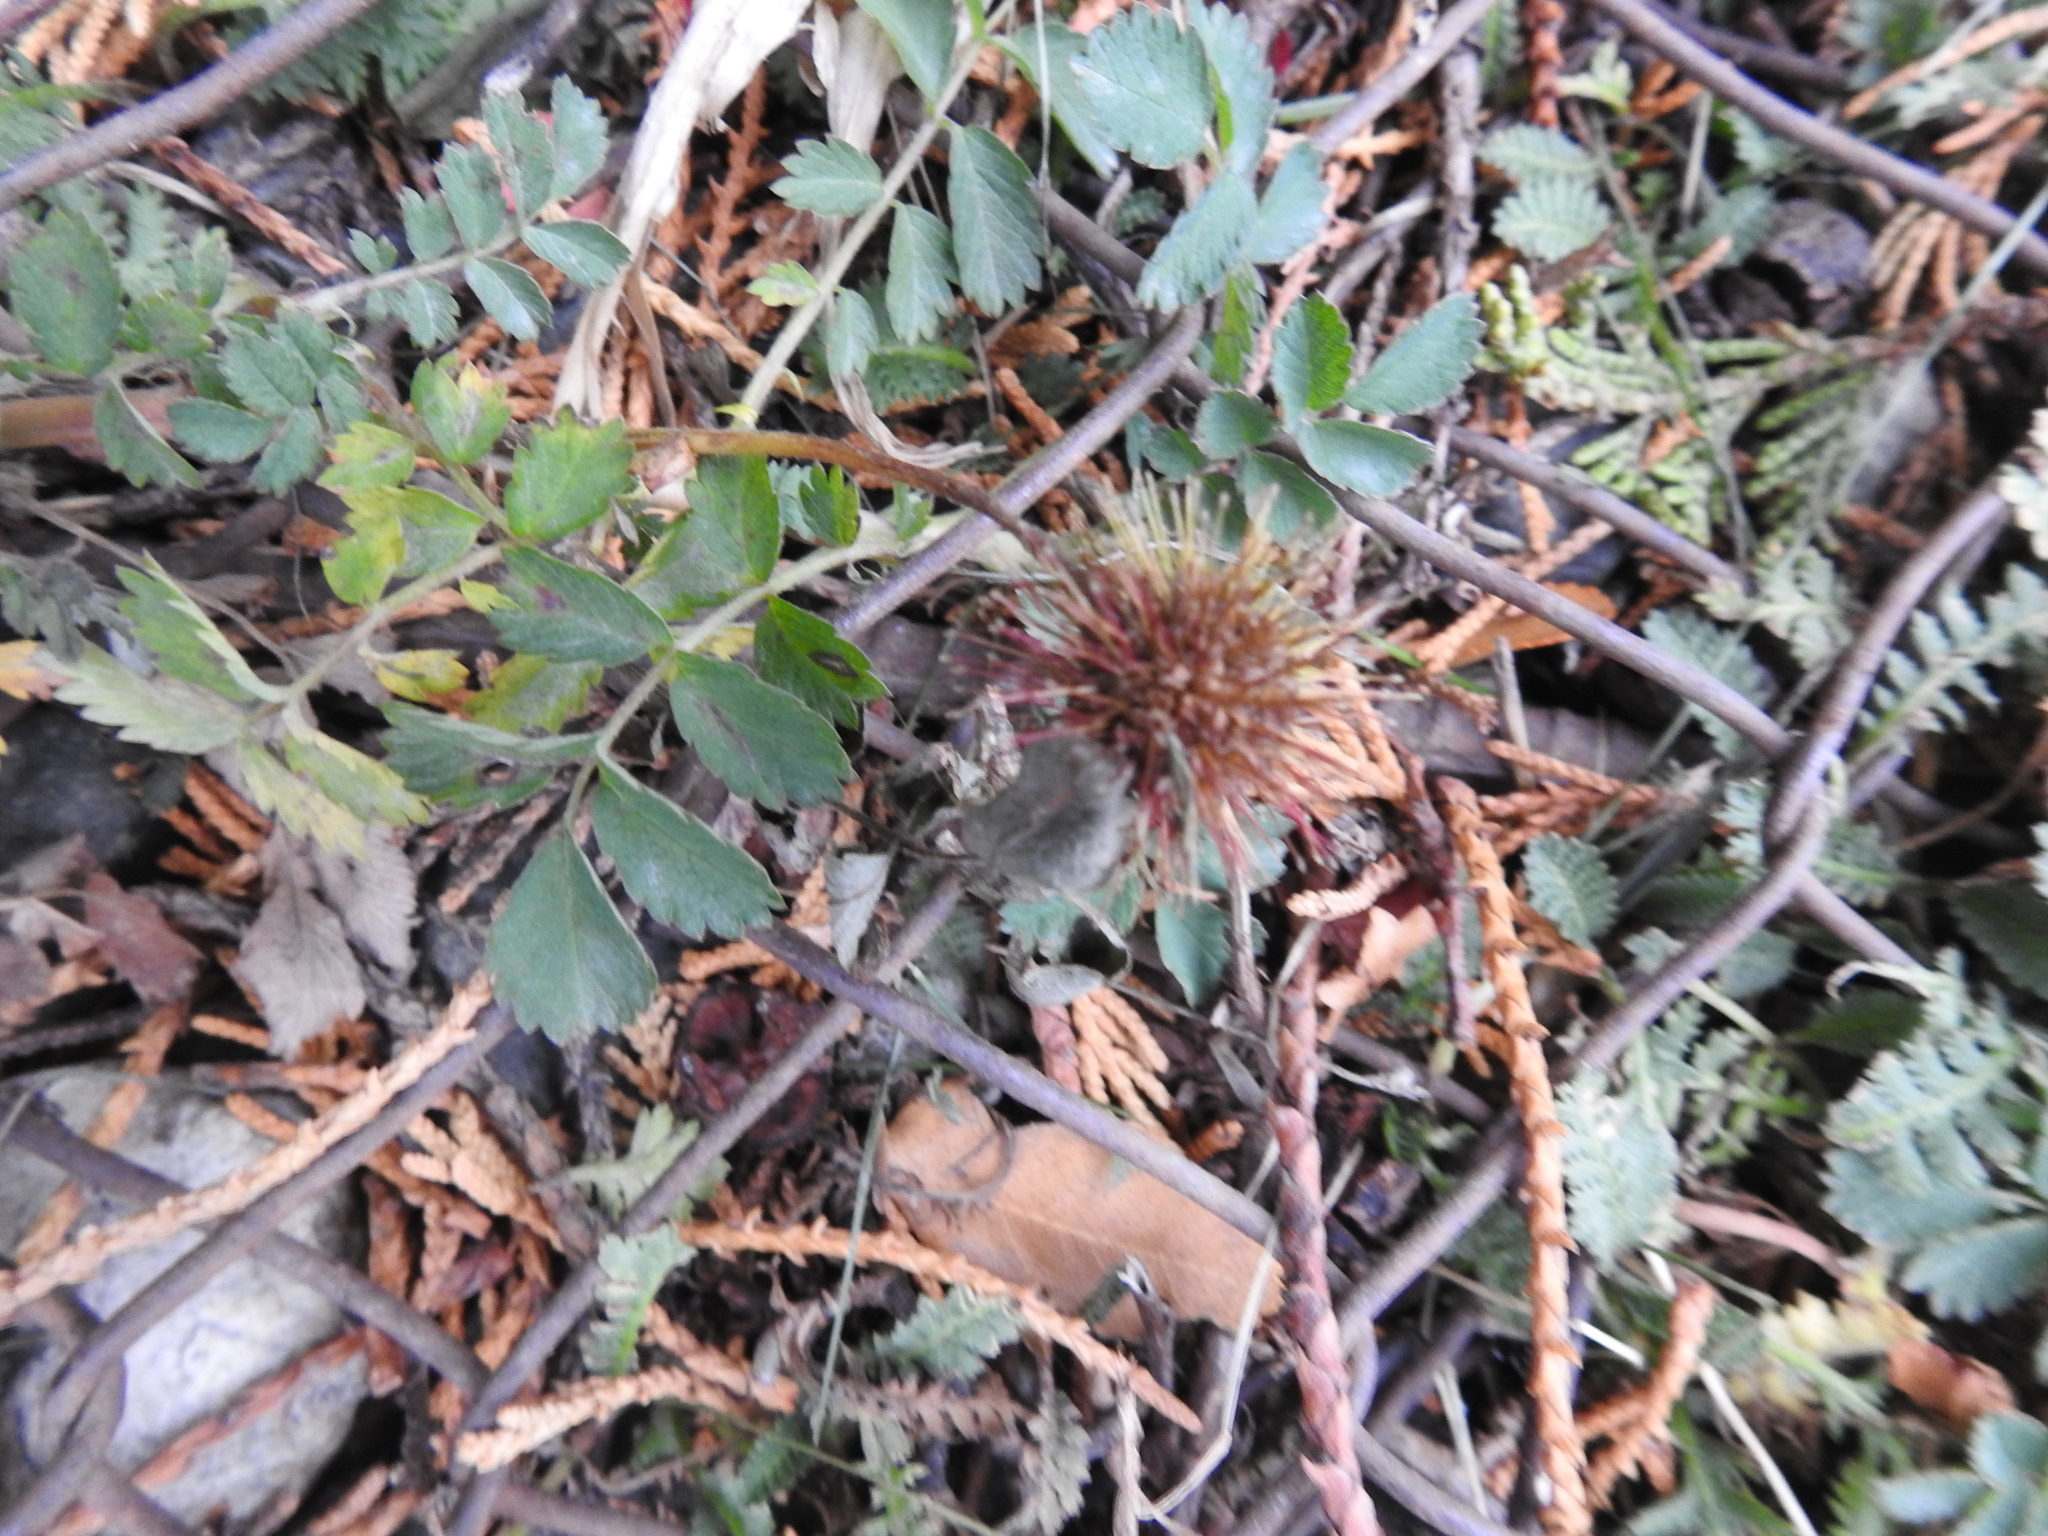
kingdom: Plantae
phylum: Tracheophyta
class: Magnoliopsida
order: Rosales
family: Rosaceae
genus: Acaena
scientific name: Acaena magellanica
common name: New zealand burr
